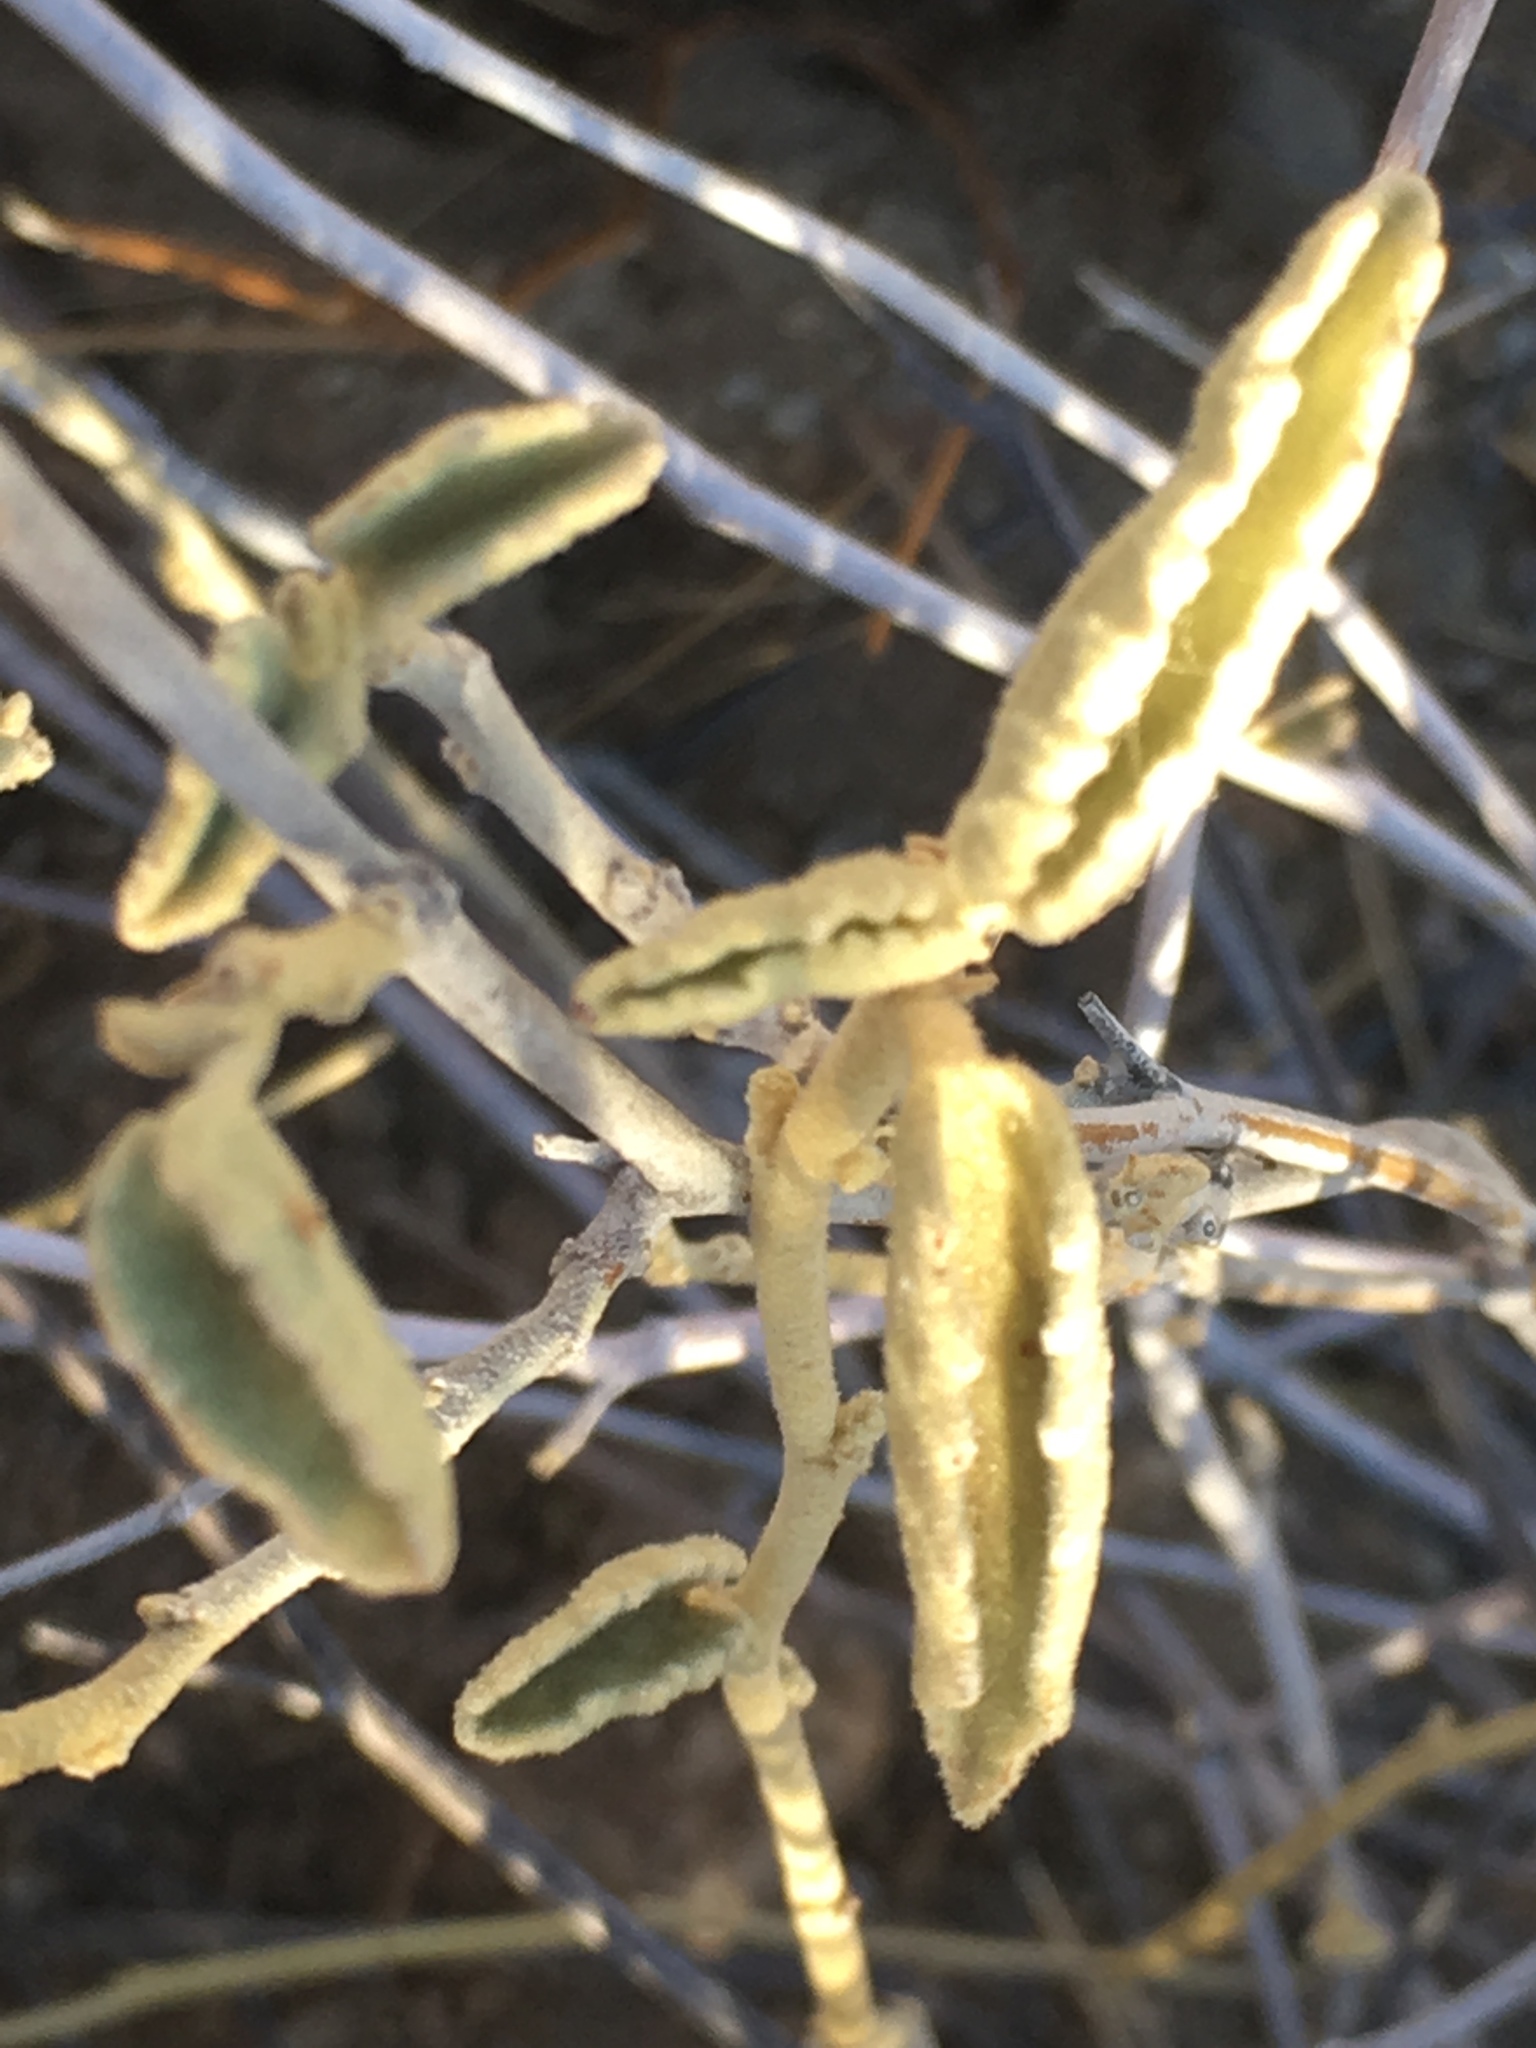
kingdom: Plantae
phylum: Tracheophyta
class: Magnoliopsida
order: Malvales
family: Malvaceae
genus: Hibiscus
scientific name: Hibiscus denudatus
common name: Paleface
